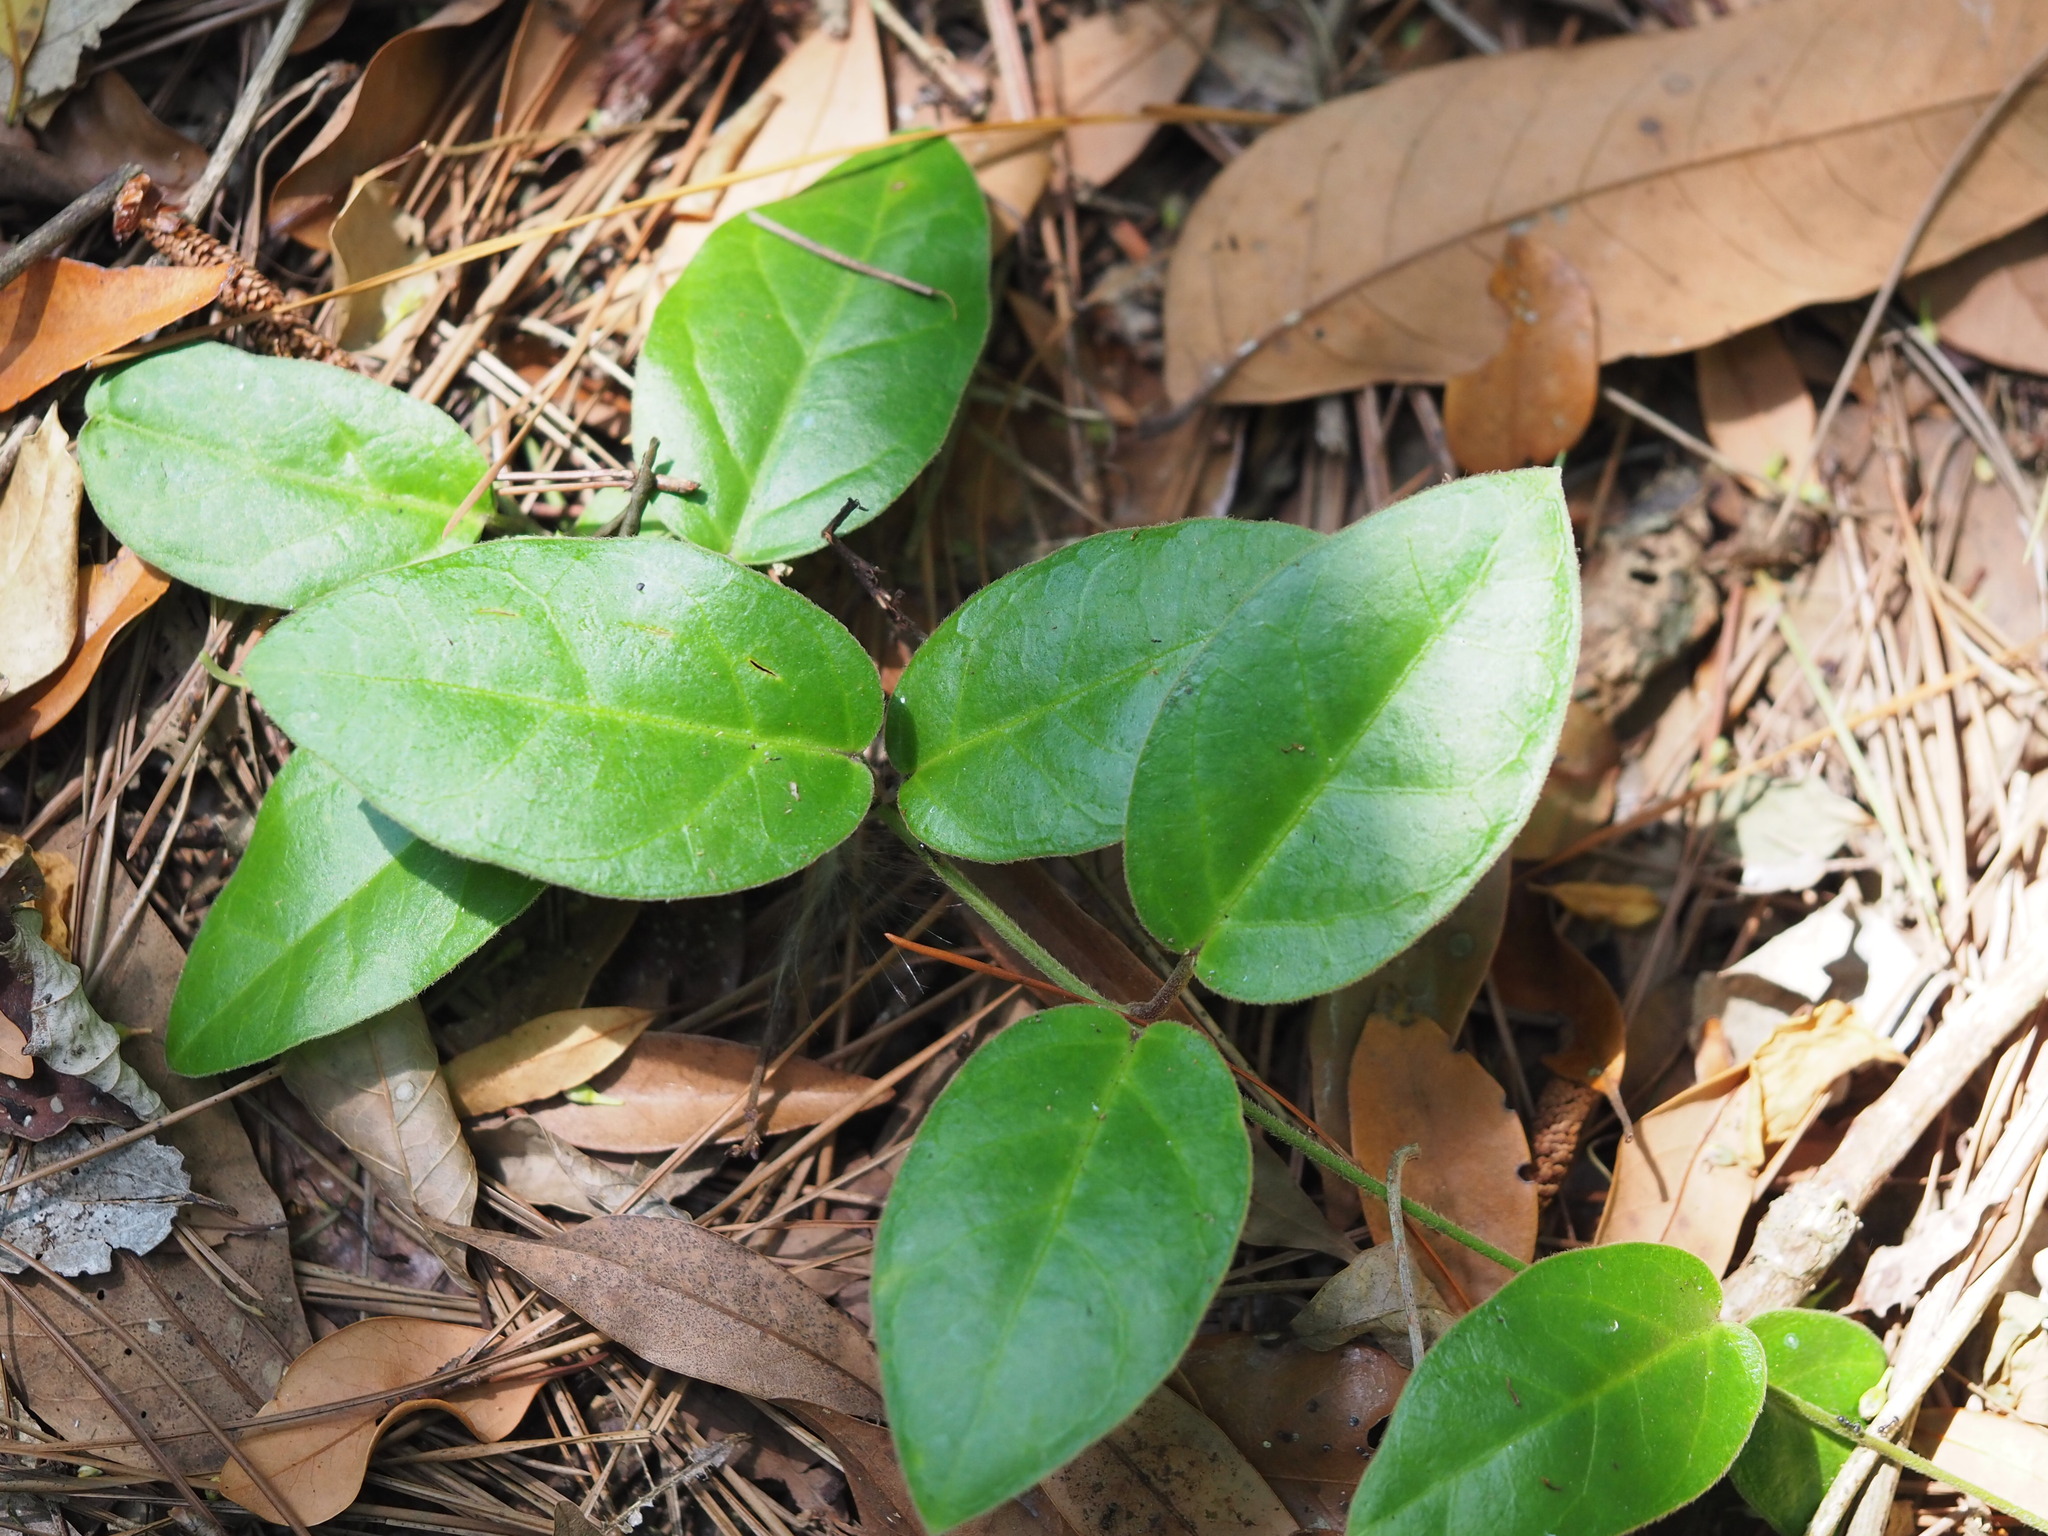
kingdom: Plantae
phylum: Tracheophyta
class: Magnoliopsida
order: Gentianales
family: Apocynaceae
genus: Vincetoxicum
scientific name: Vincetoxicum hirsutum
